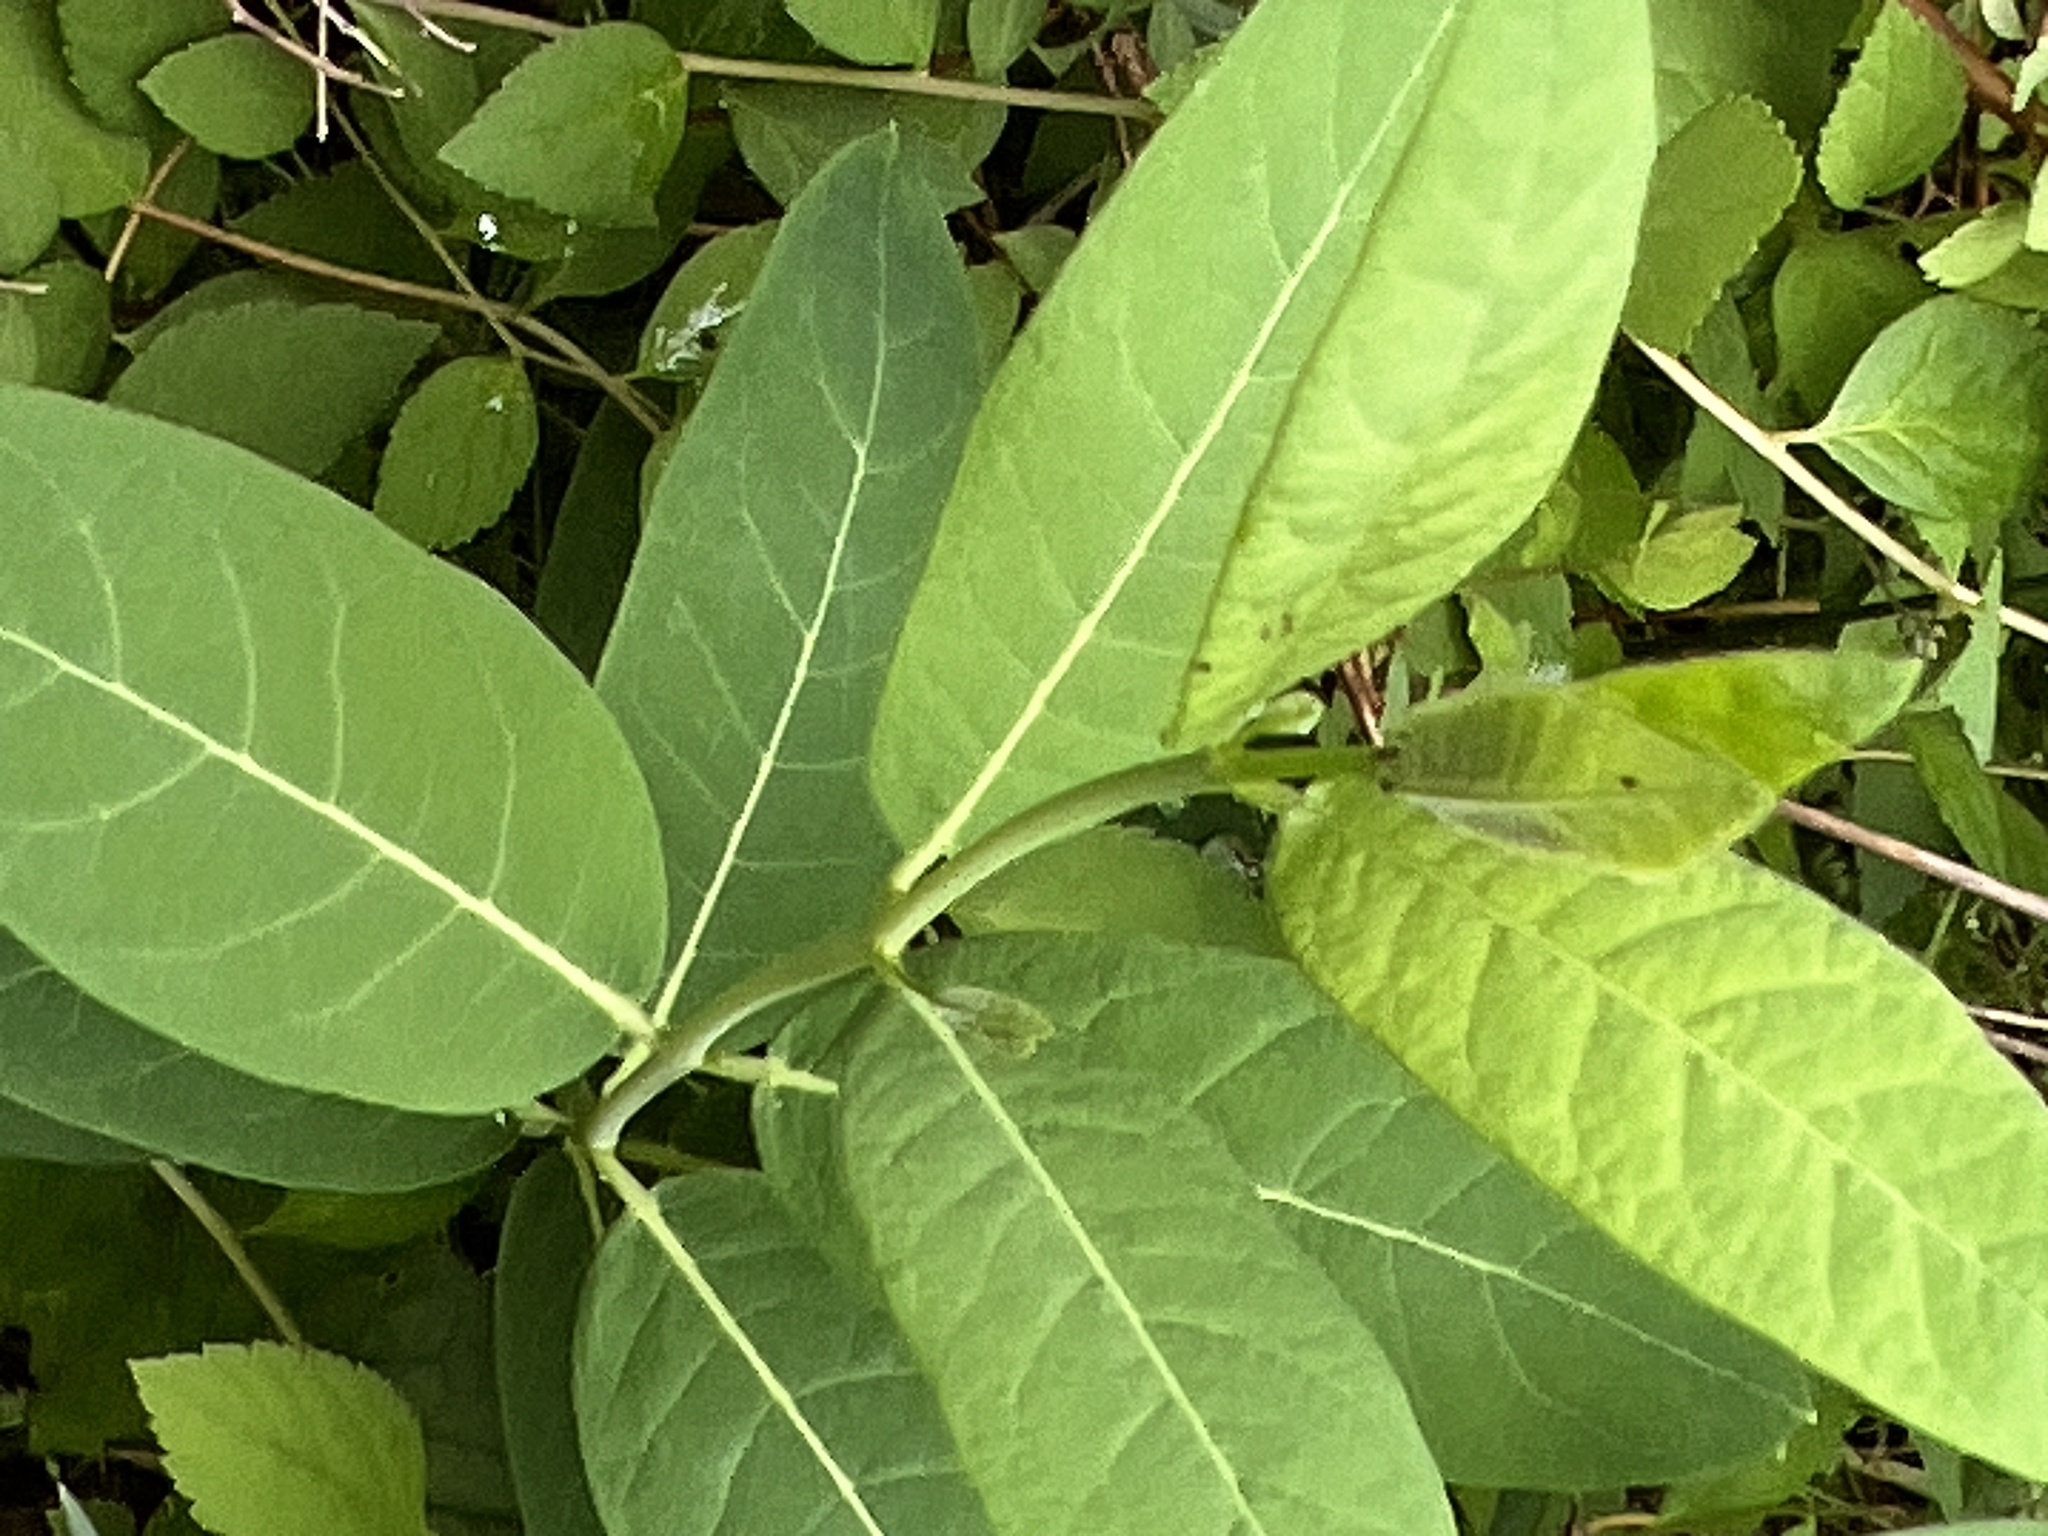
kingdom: Plantae
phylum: Tracheophyta
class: Magnoliopsida
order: Gentianales
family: Apocynaceae
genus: Apocynum
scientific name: Apocynum cannabinum
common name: Hemp dogbane
